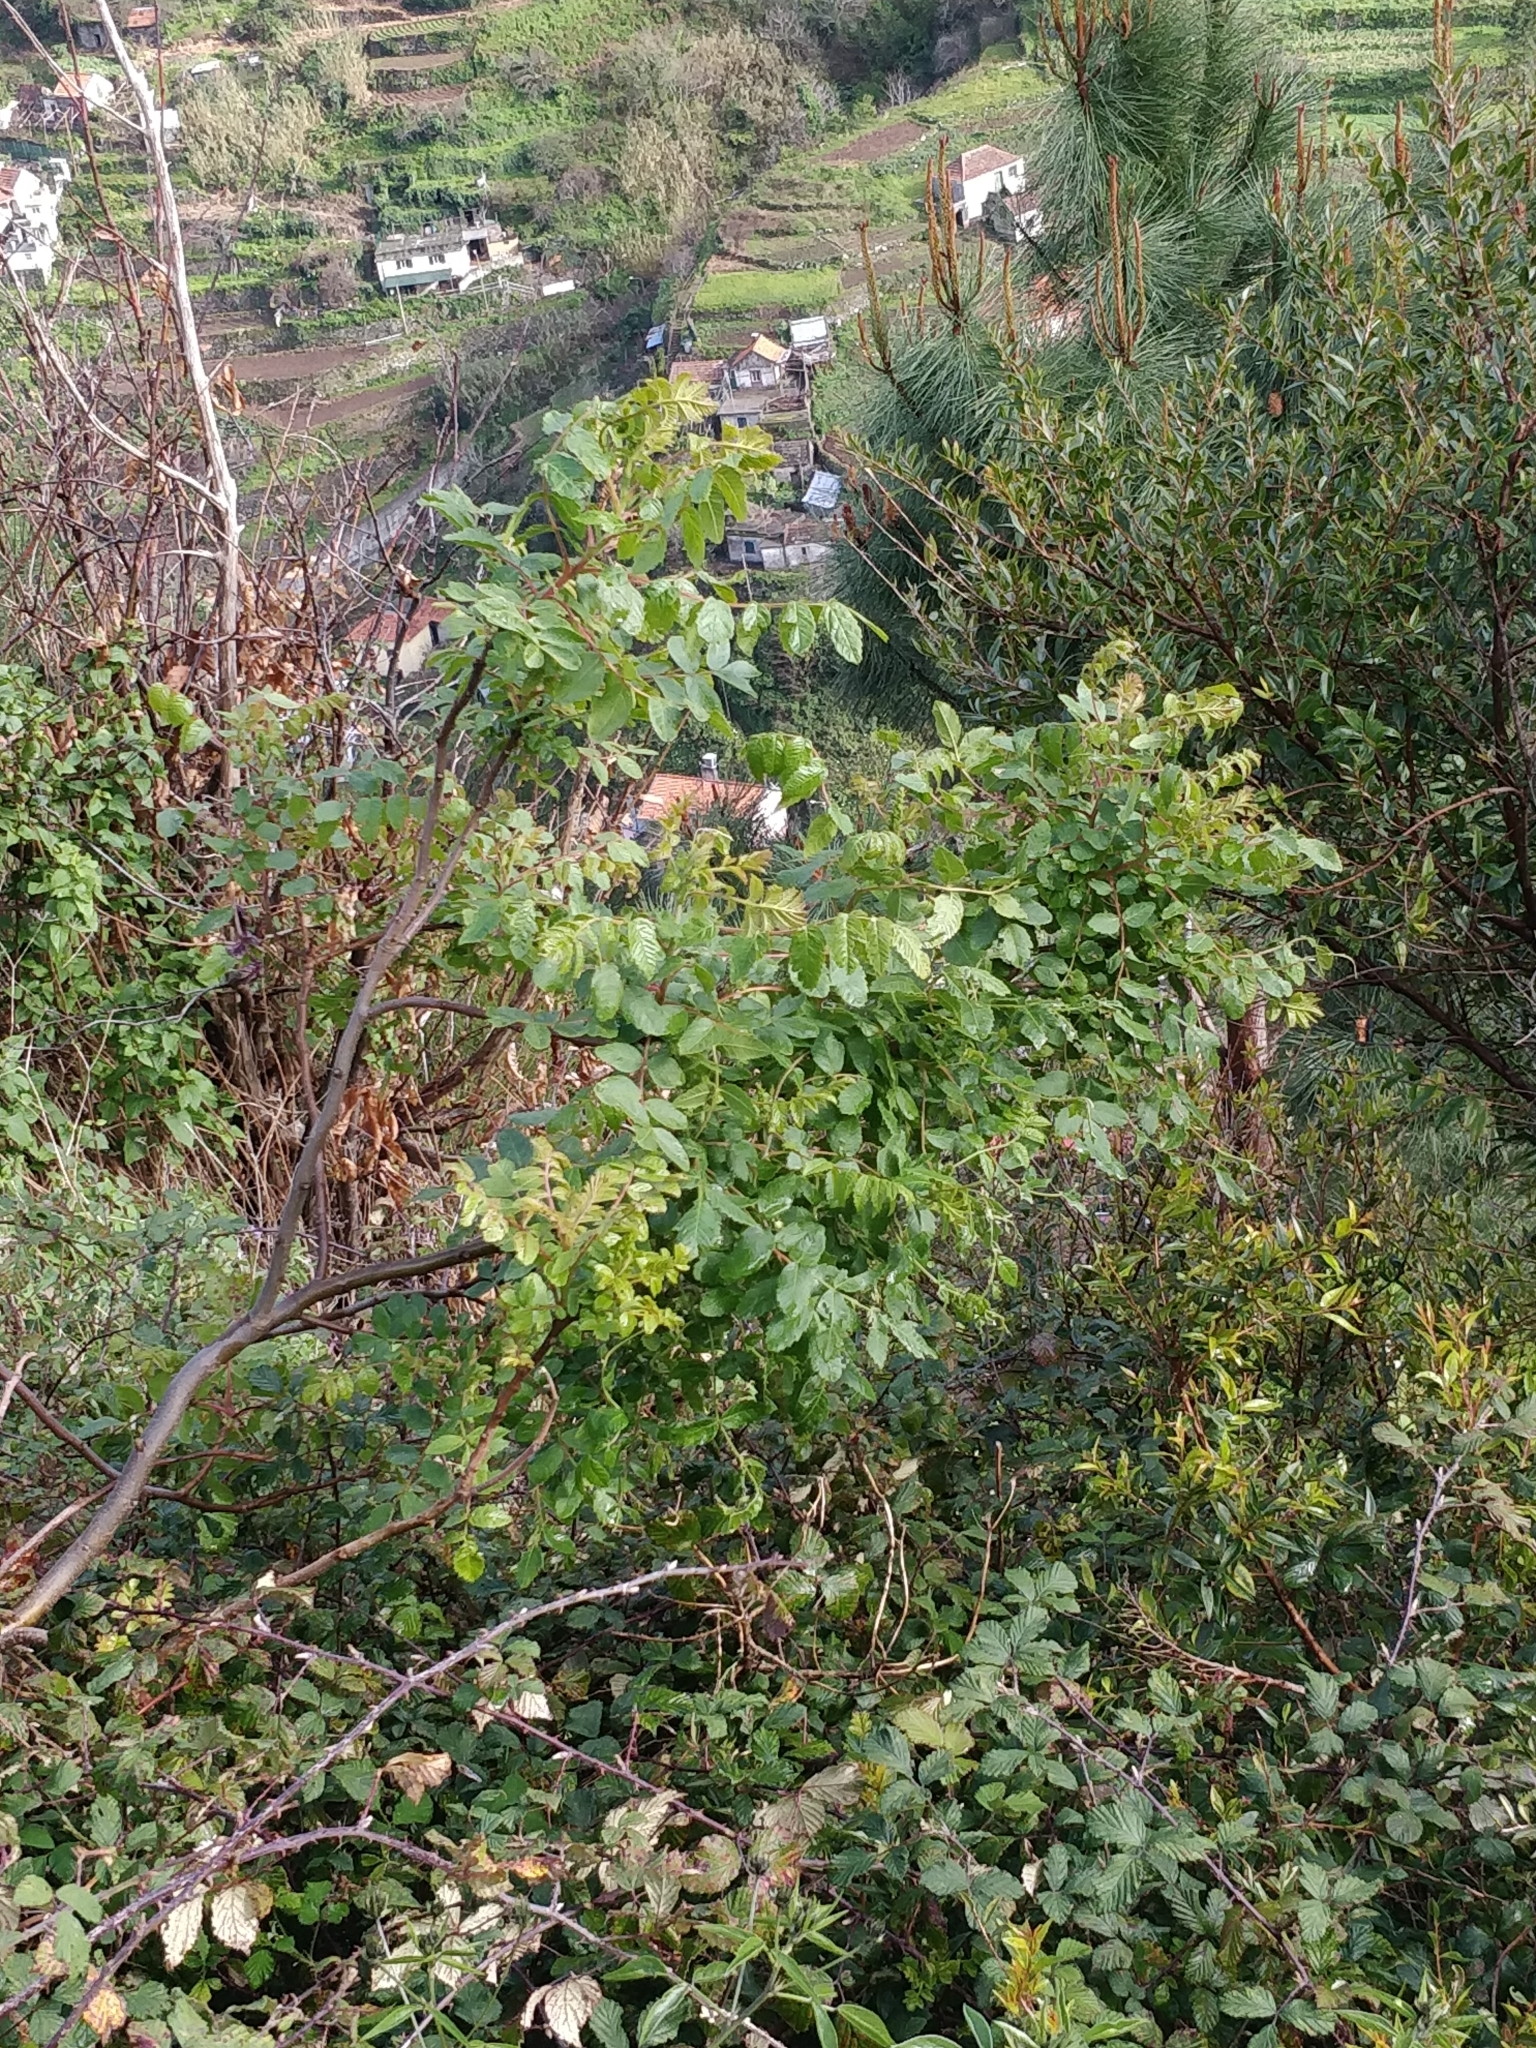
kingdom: Plantae
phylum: Tracheophyta
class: Magnoliopsida
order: Sapindales
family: Anacardiaceae
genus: Rhus
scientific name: Rhus coriaria
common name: Tanner's sumach
